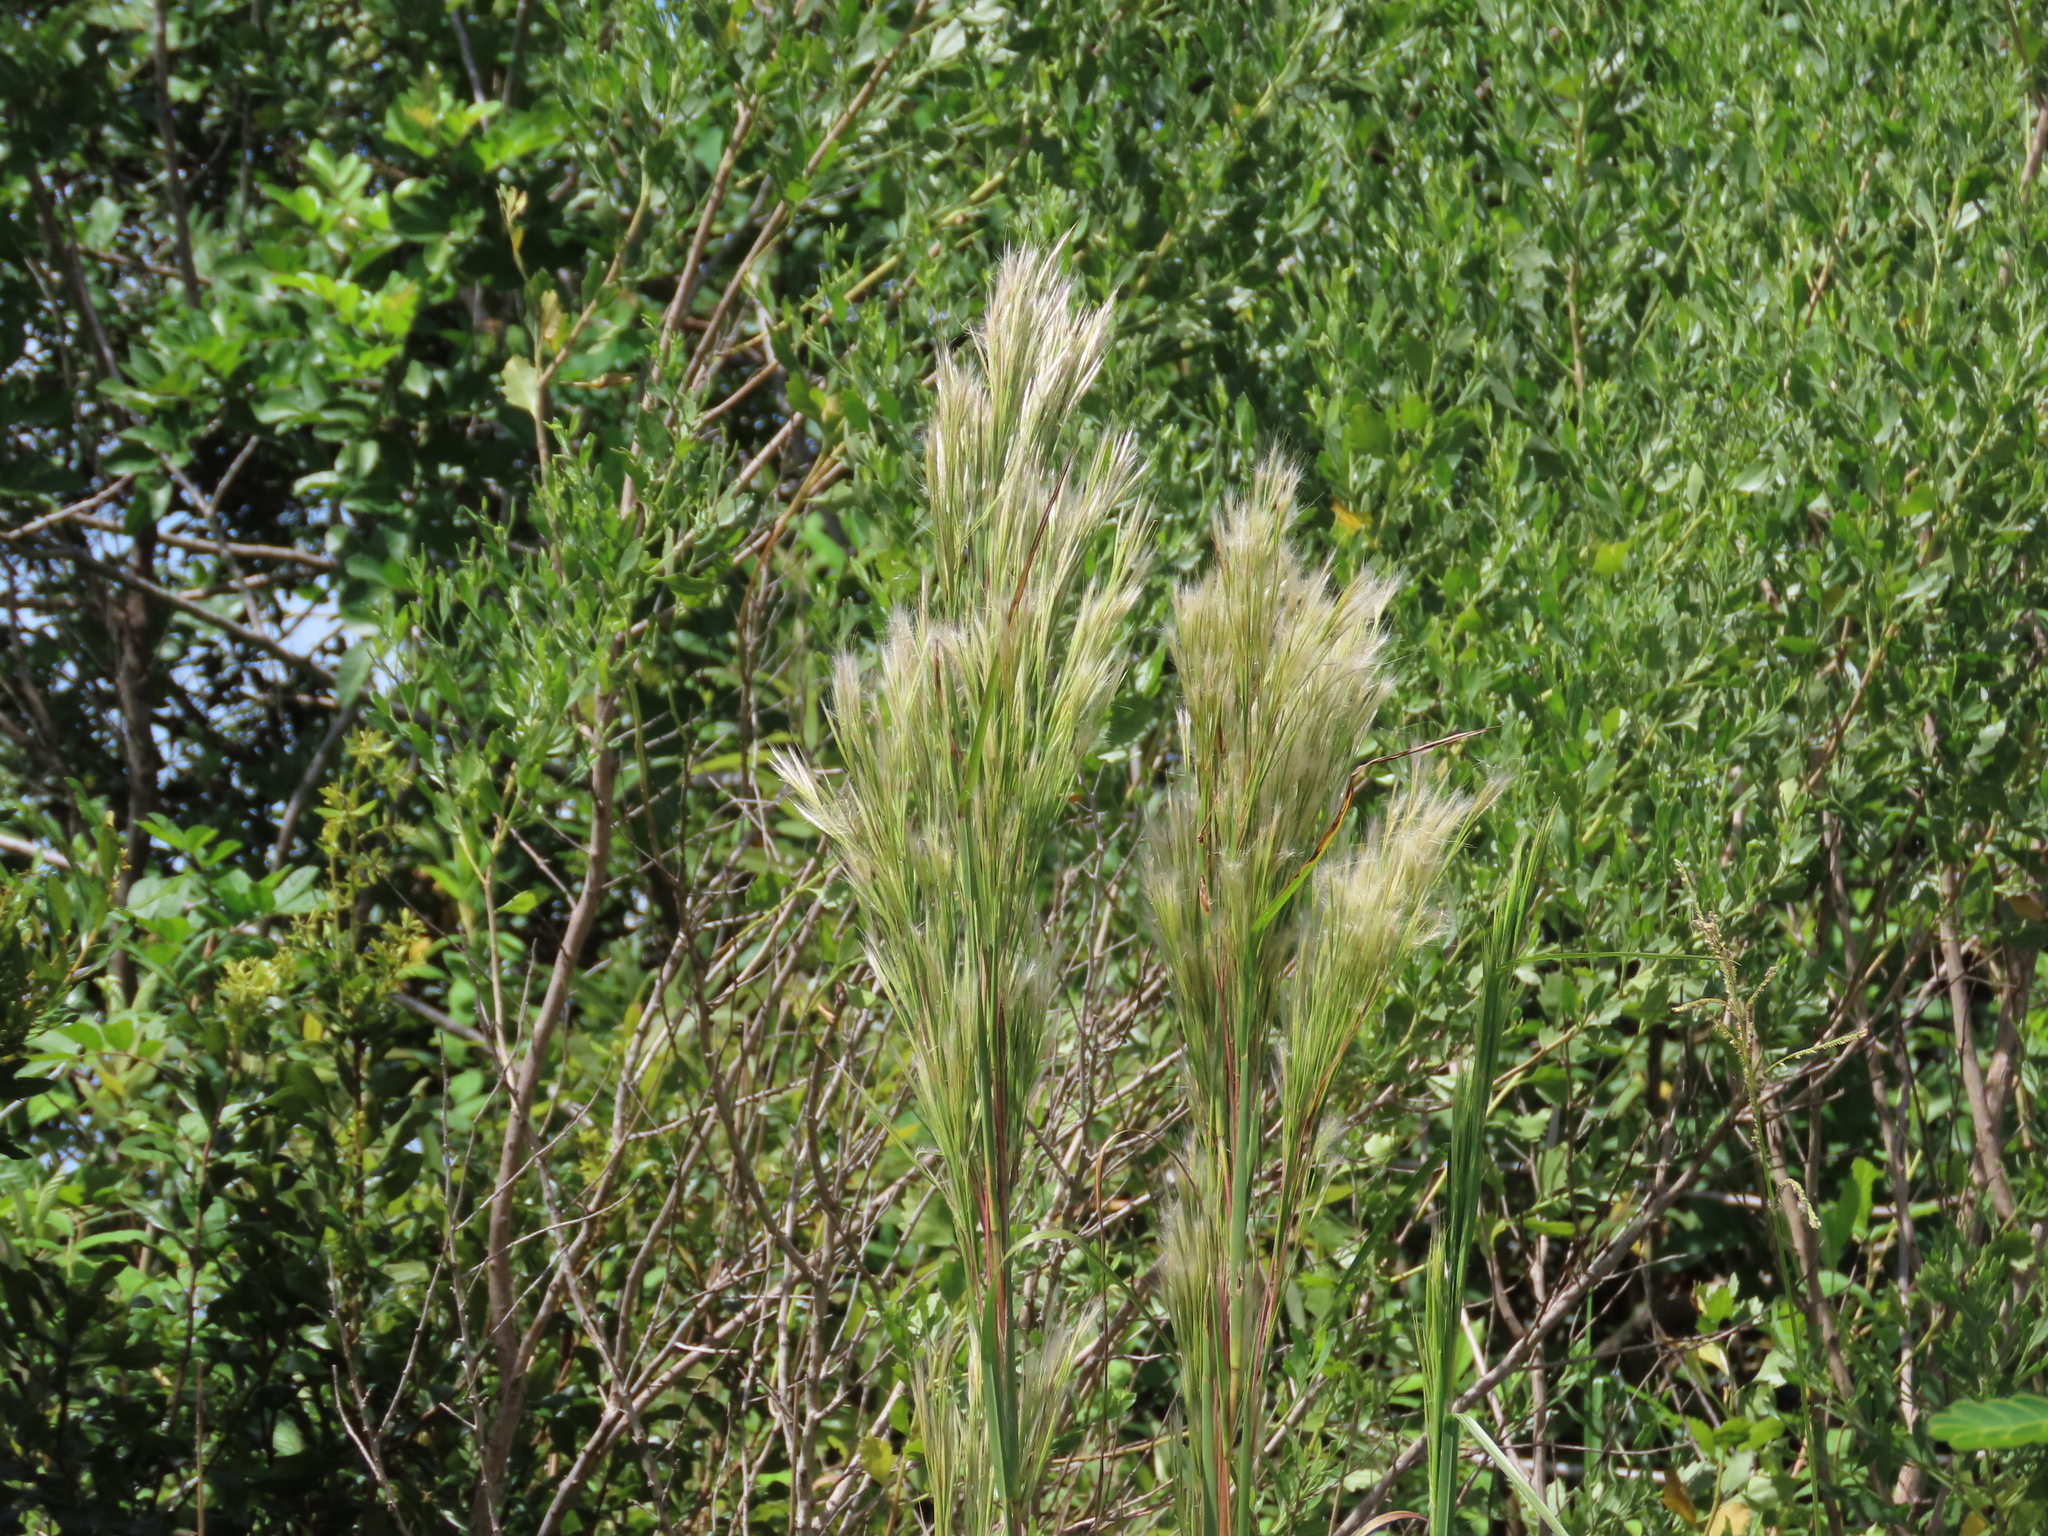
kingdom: Plantae
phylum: Tracheophyta
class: Liliopsida
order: Poales
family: Poaceae
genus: Andropogon
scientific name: Andropogon tenuispatheus
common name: Bushy bluestem
